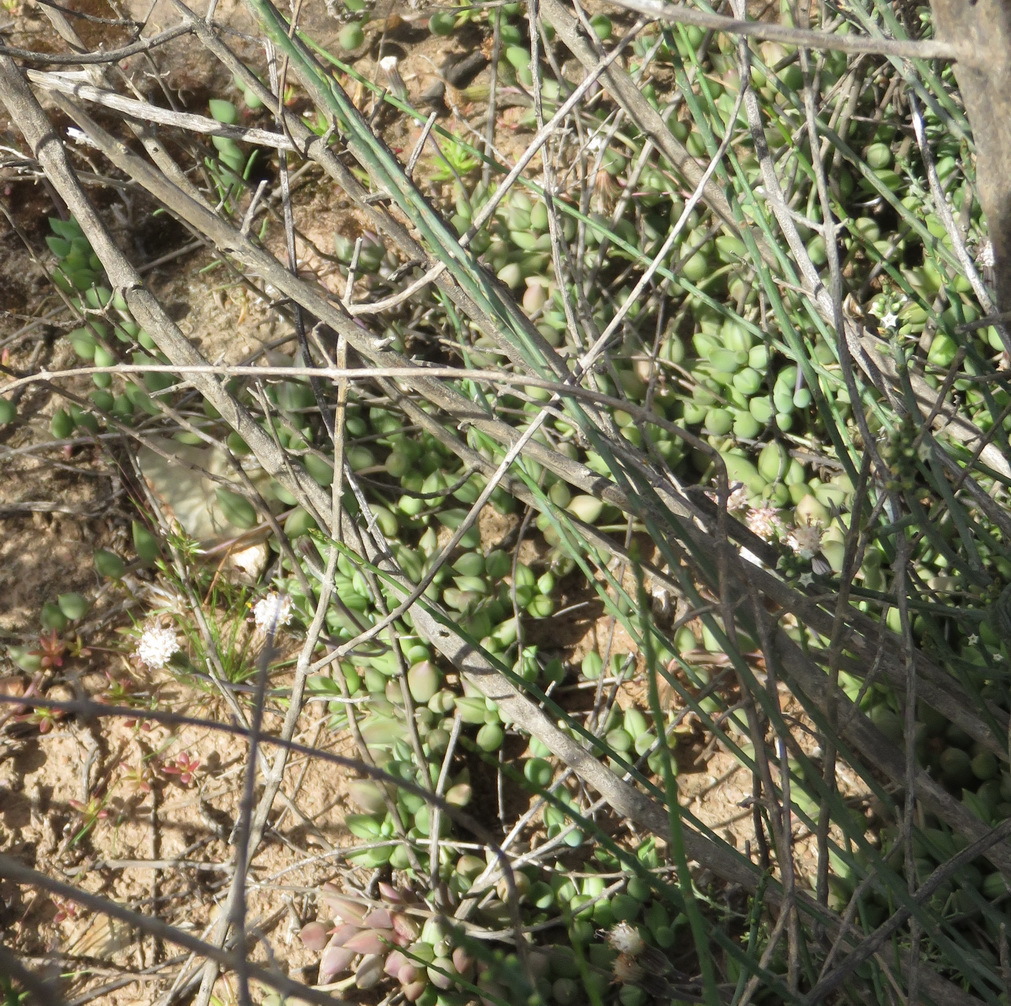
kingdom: Plantae
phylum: Tracheophyta
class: Magnoliopsida
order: Asterales
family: Asteraceae
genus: Curio
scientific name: Curio radicans
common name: Creeping-berry
